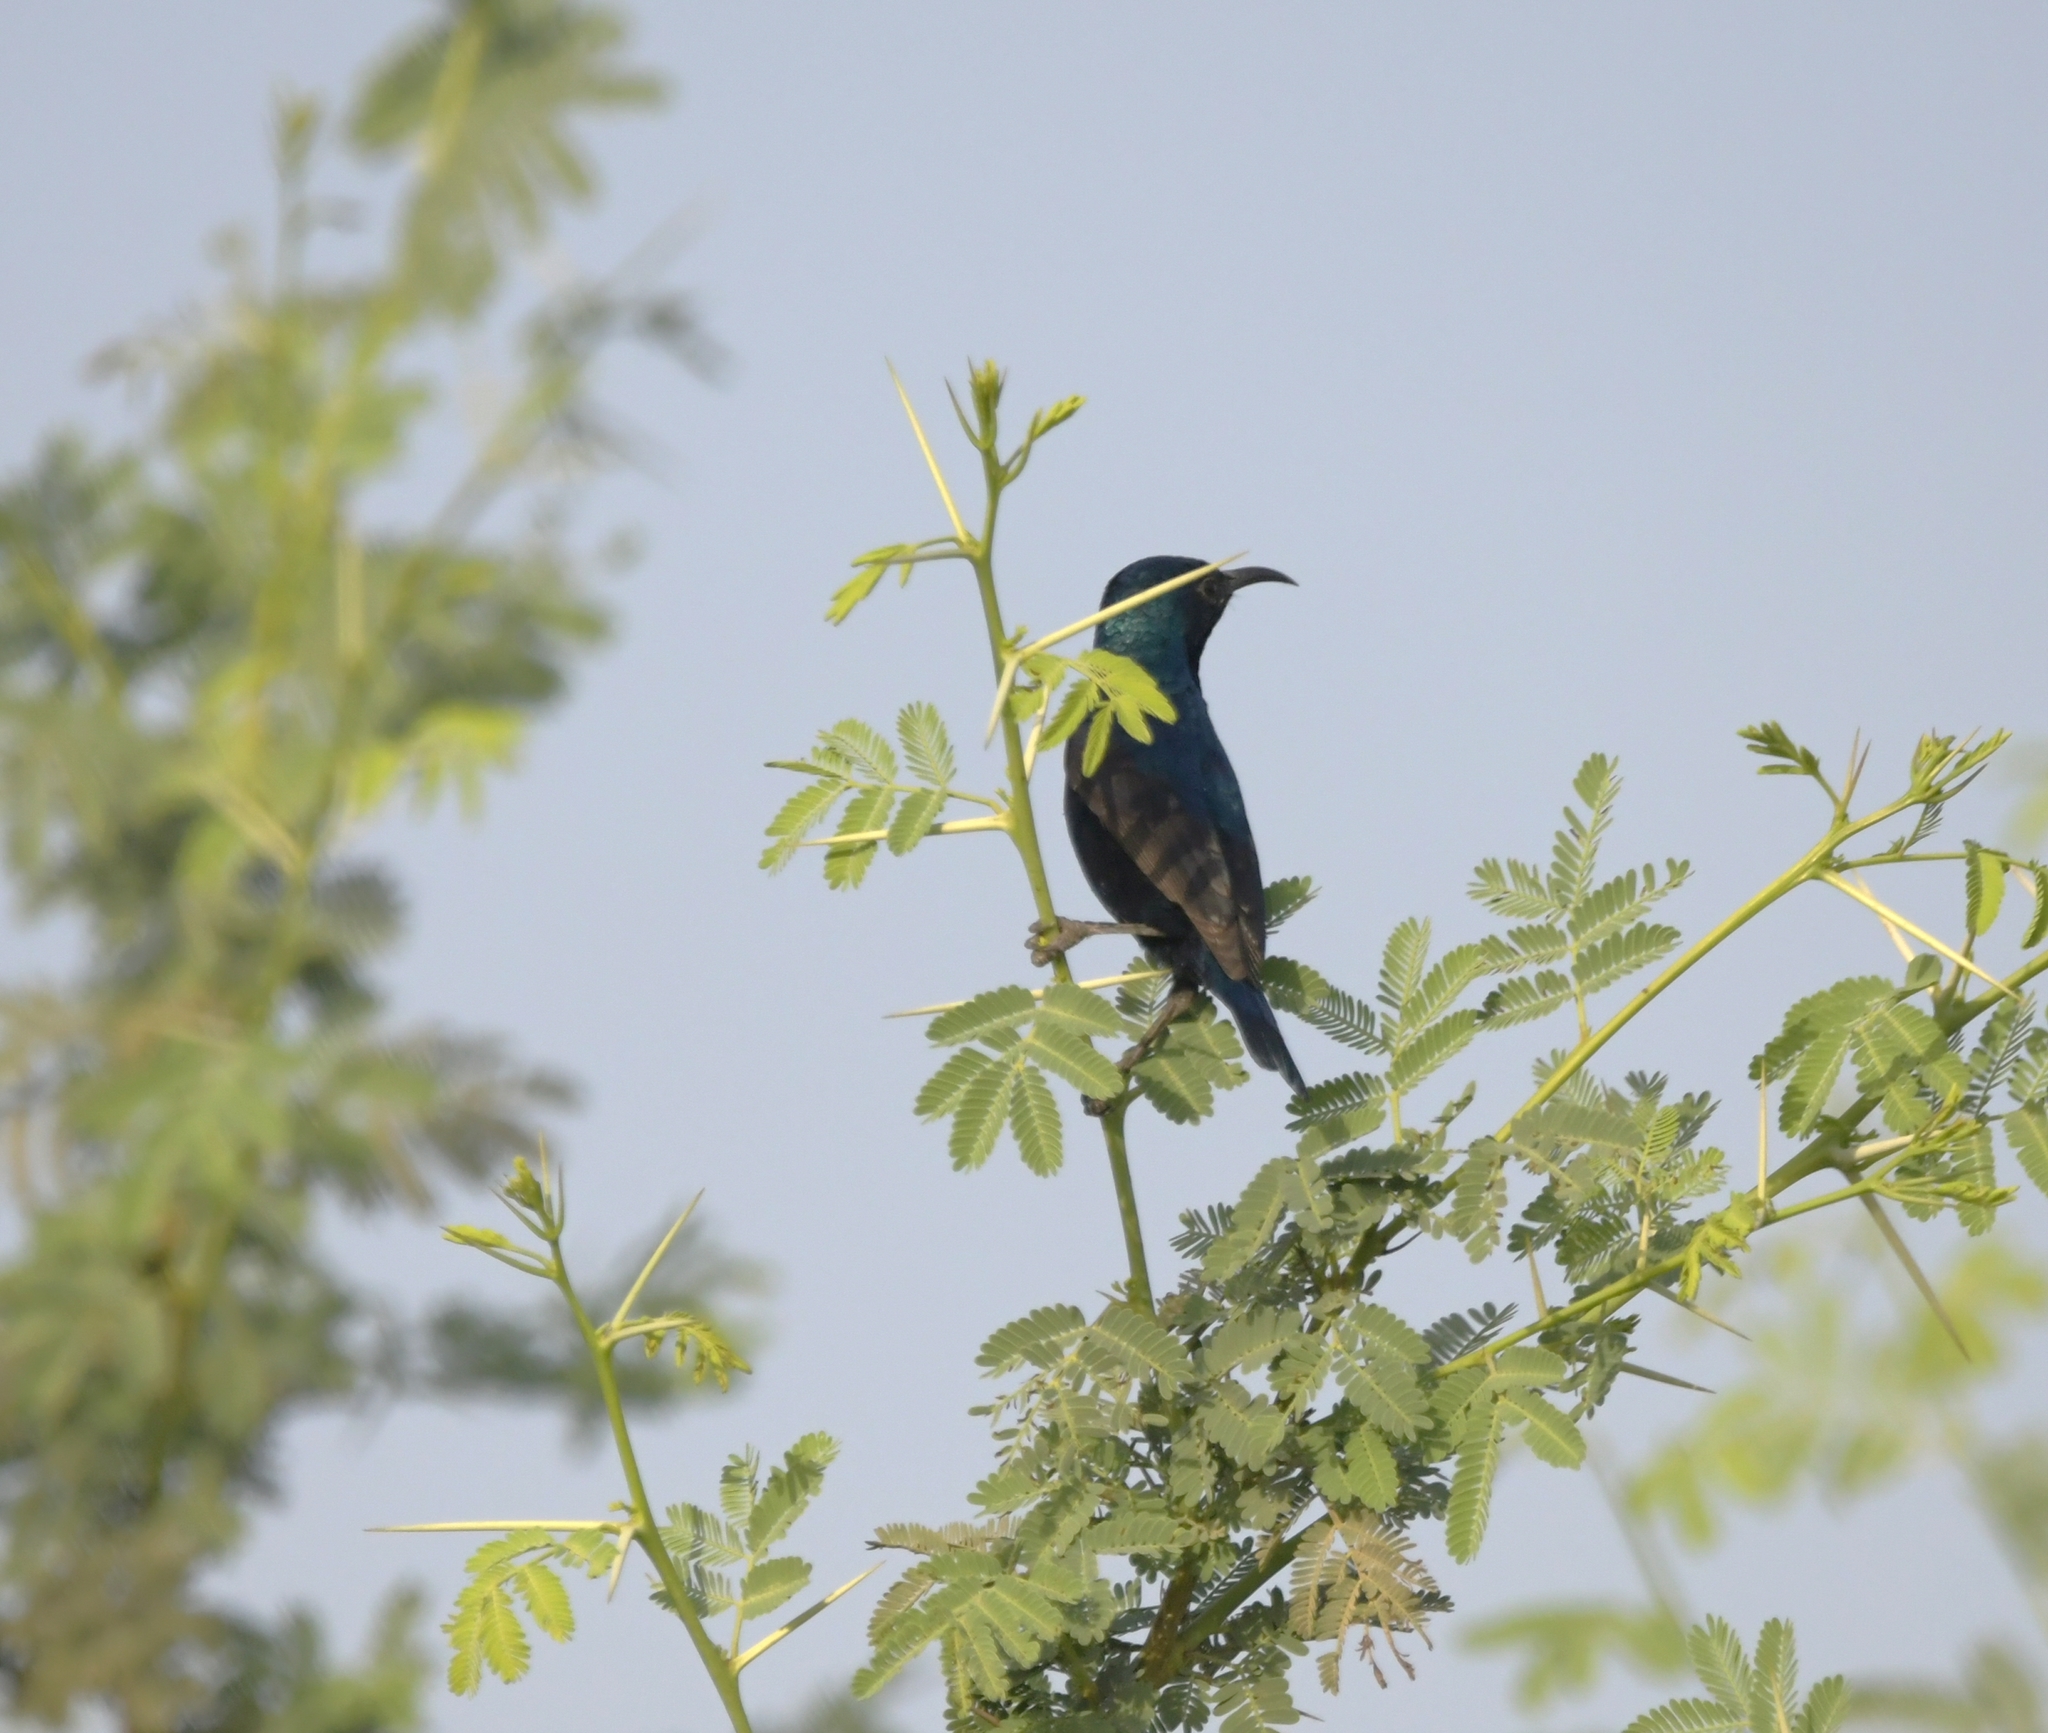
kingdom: Animalia
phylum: Chordata
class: Aves
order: Passeriformes
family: Nectariniidae
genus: Cinnyris
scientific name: Cinnyris asiaticus
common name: Purple sunbird
